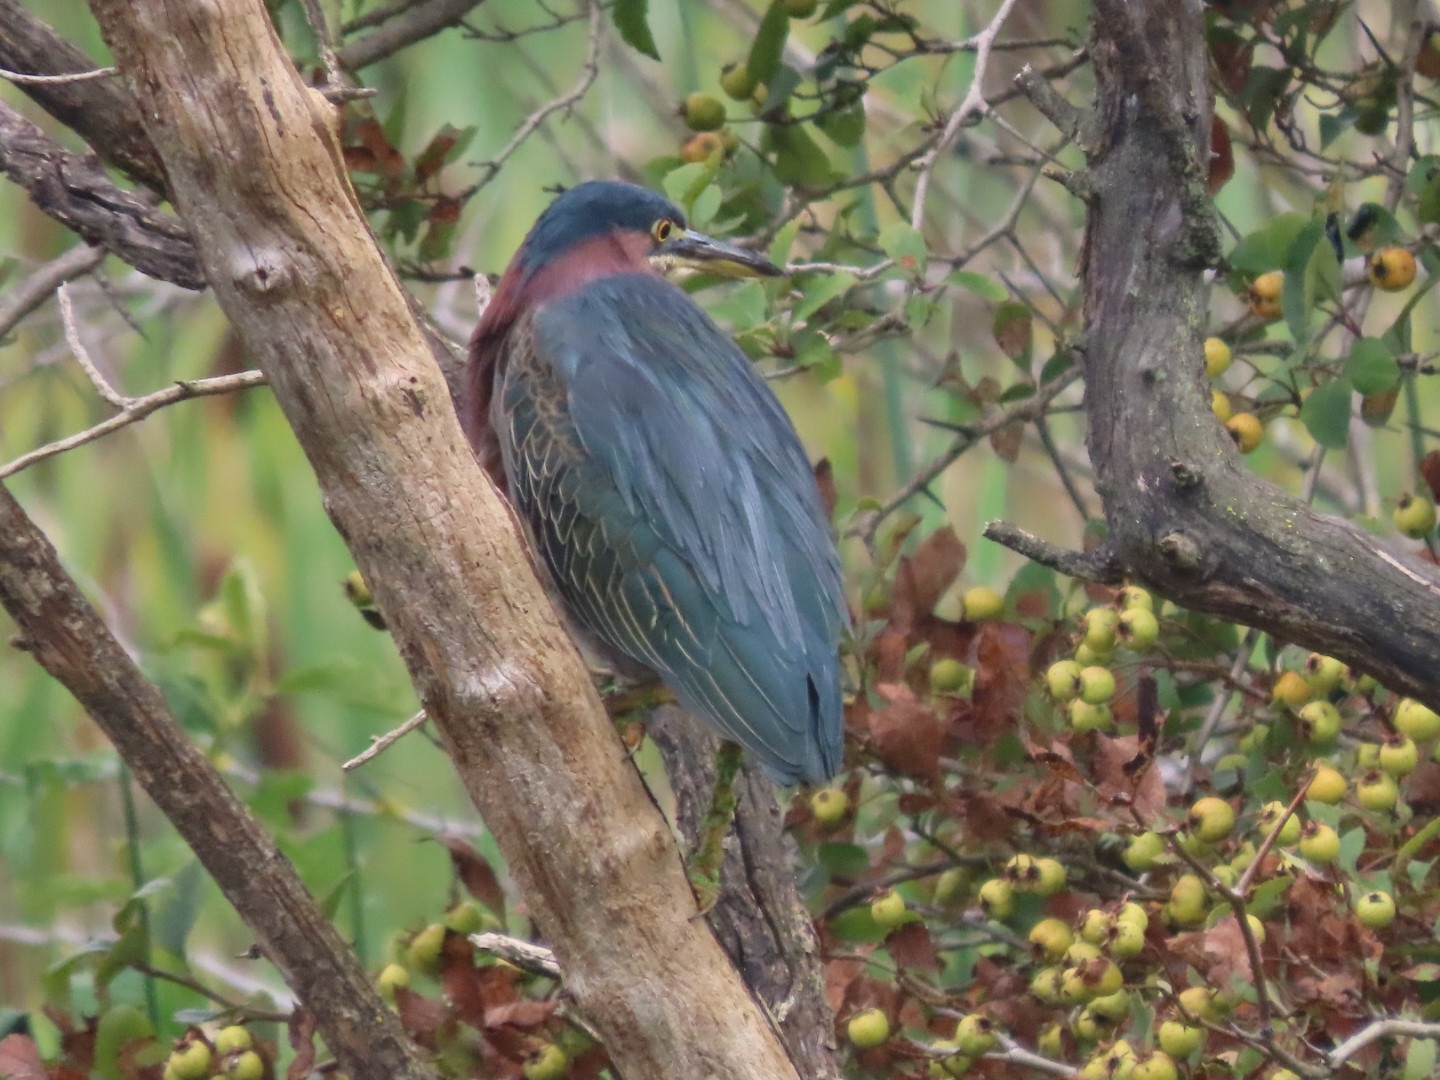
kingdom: Animalia
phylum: Chordata
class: Aves
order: Pelecaniformes
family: Ardeidae
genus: Butorides
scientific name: Butorides virescens
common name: Green heron
